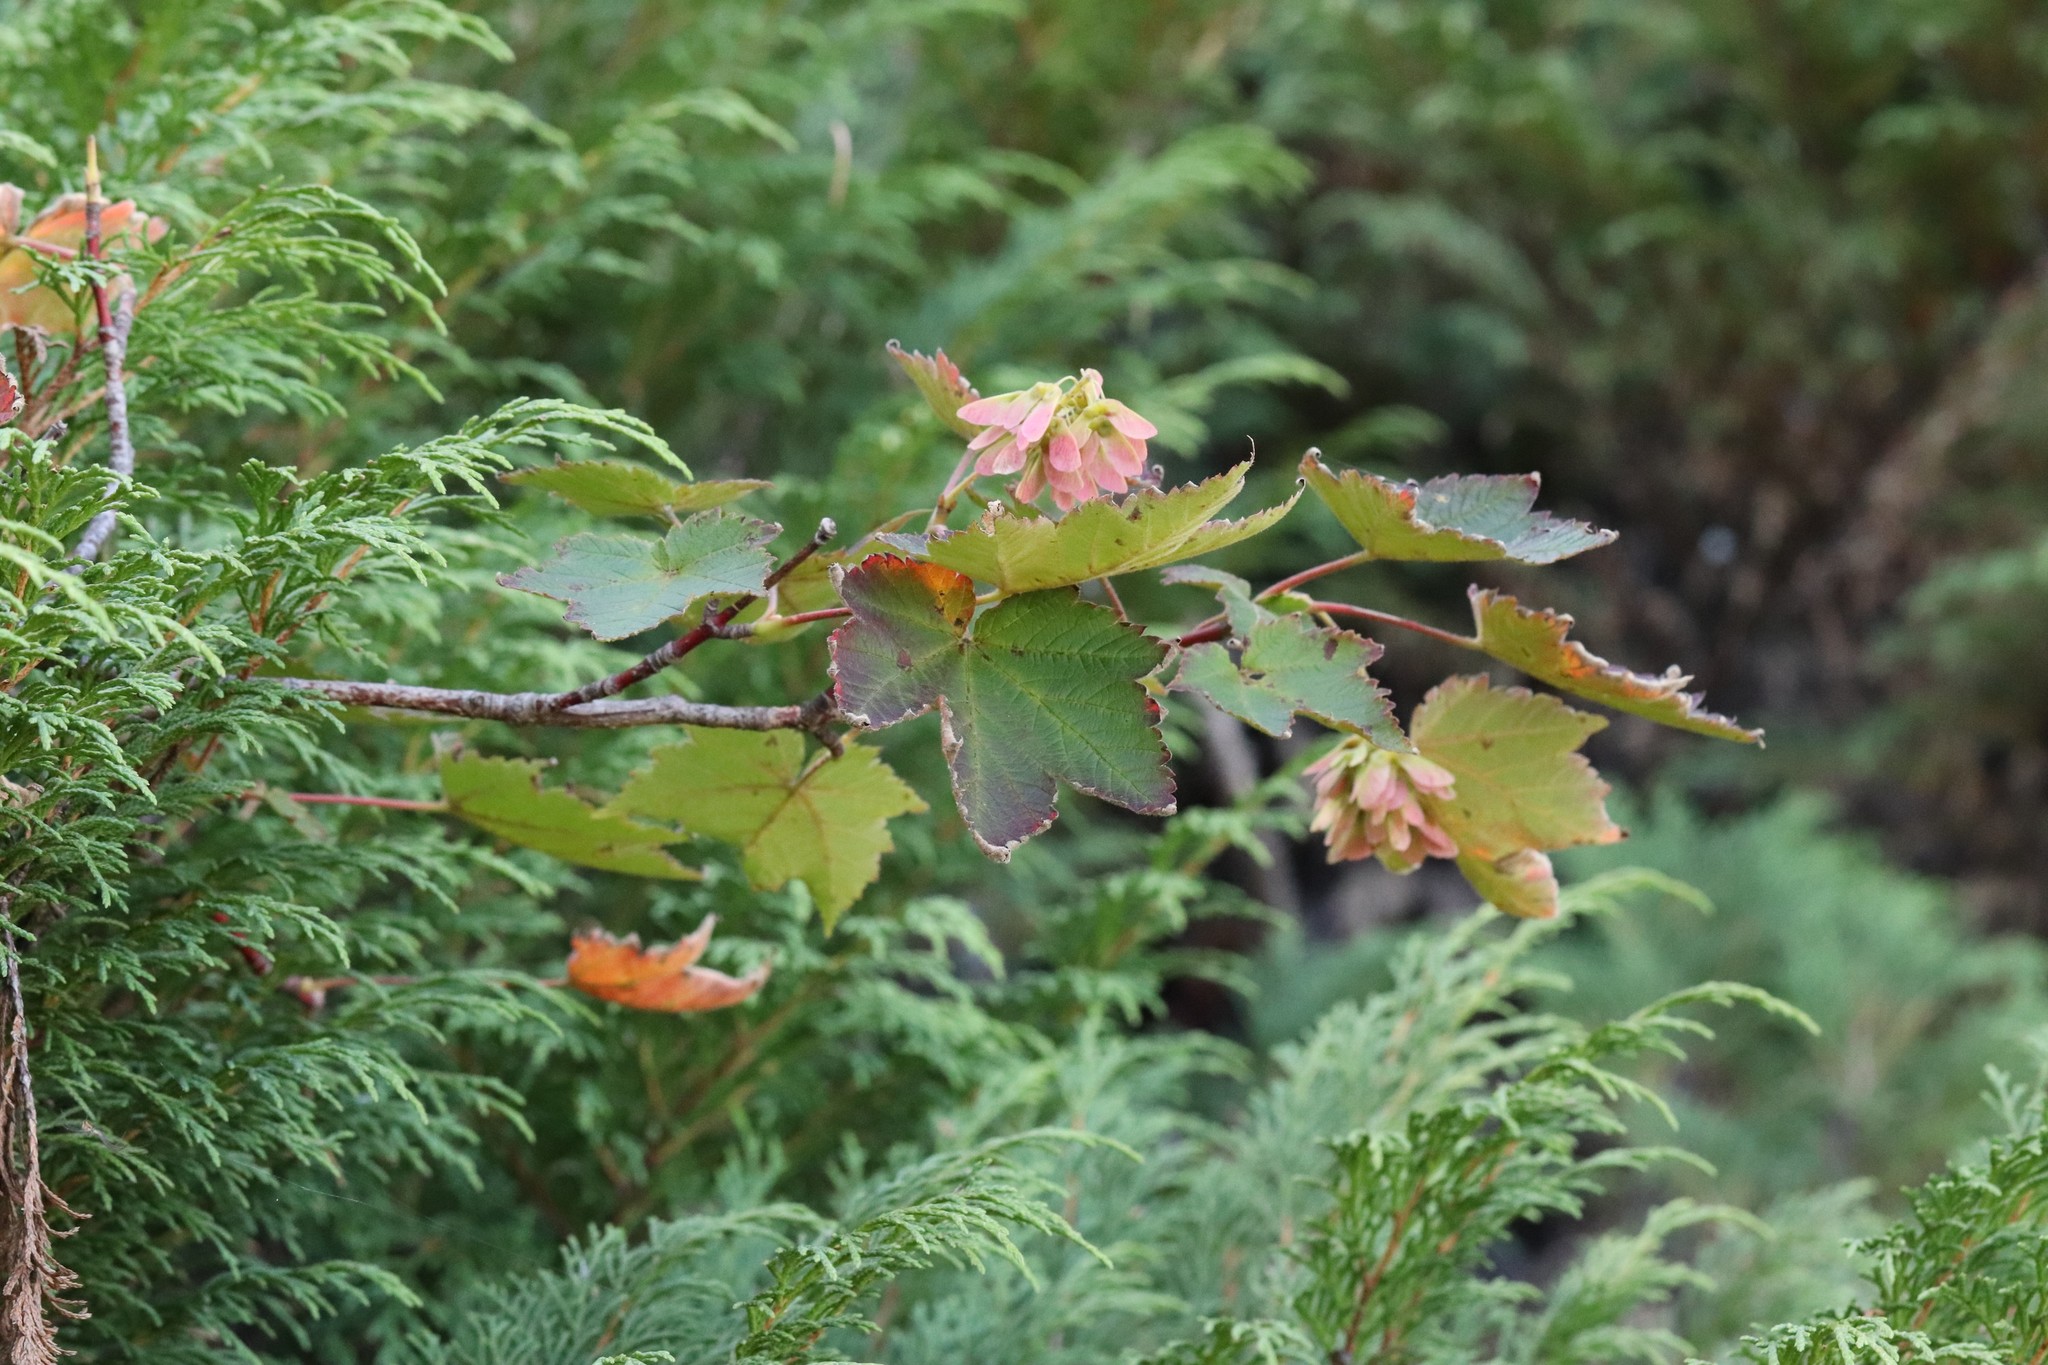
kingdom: Plantae
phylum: Tracheophyta
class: Magnoliopsida
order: Sapindales
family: Sapindaceae
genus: Acer
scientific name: Acer ukurunduense
